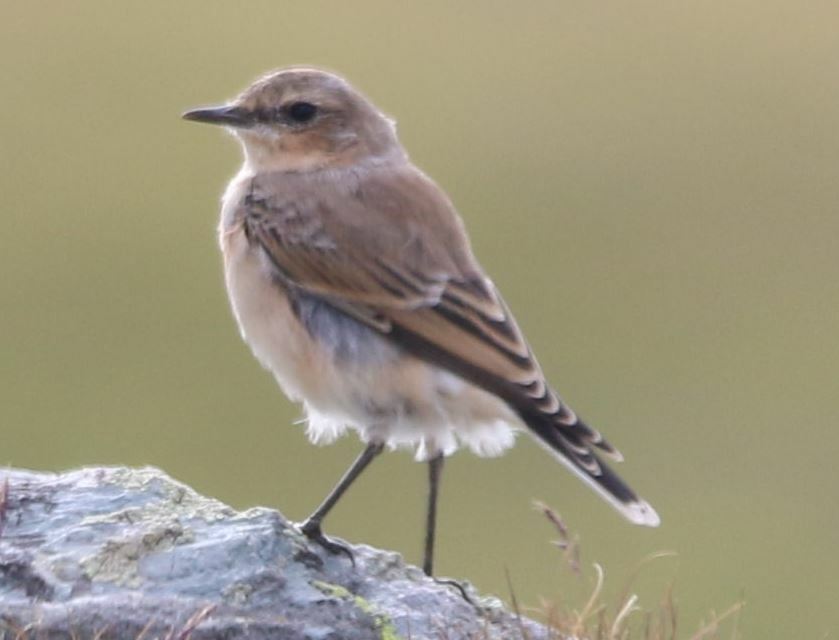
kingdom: Animalia
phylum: Chordata
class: Aves
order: Passeriformes
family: Muscicapidae
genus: Oenanthe
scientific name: Oenanthe oenanthe
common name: Northern wheatear
